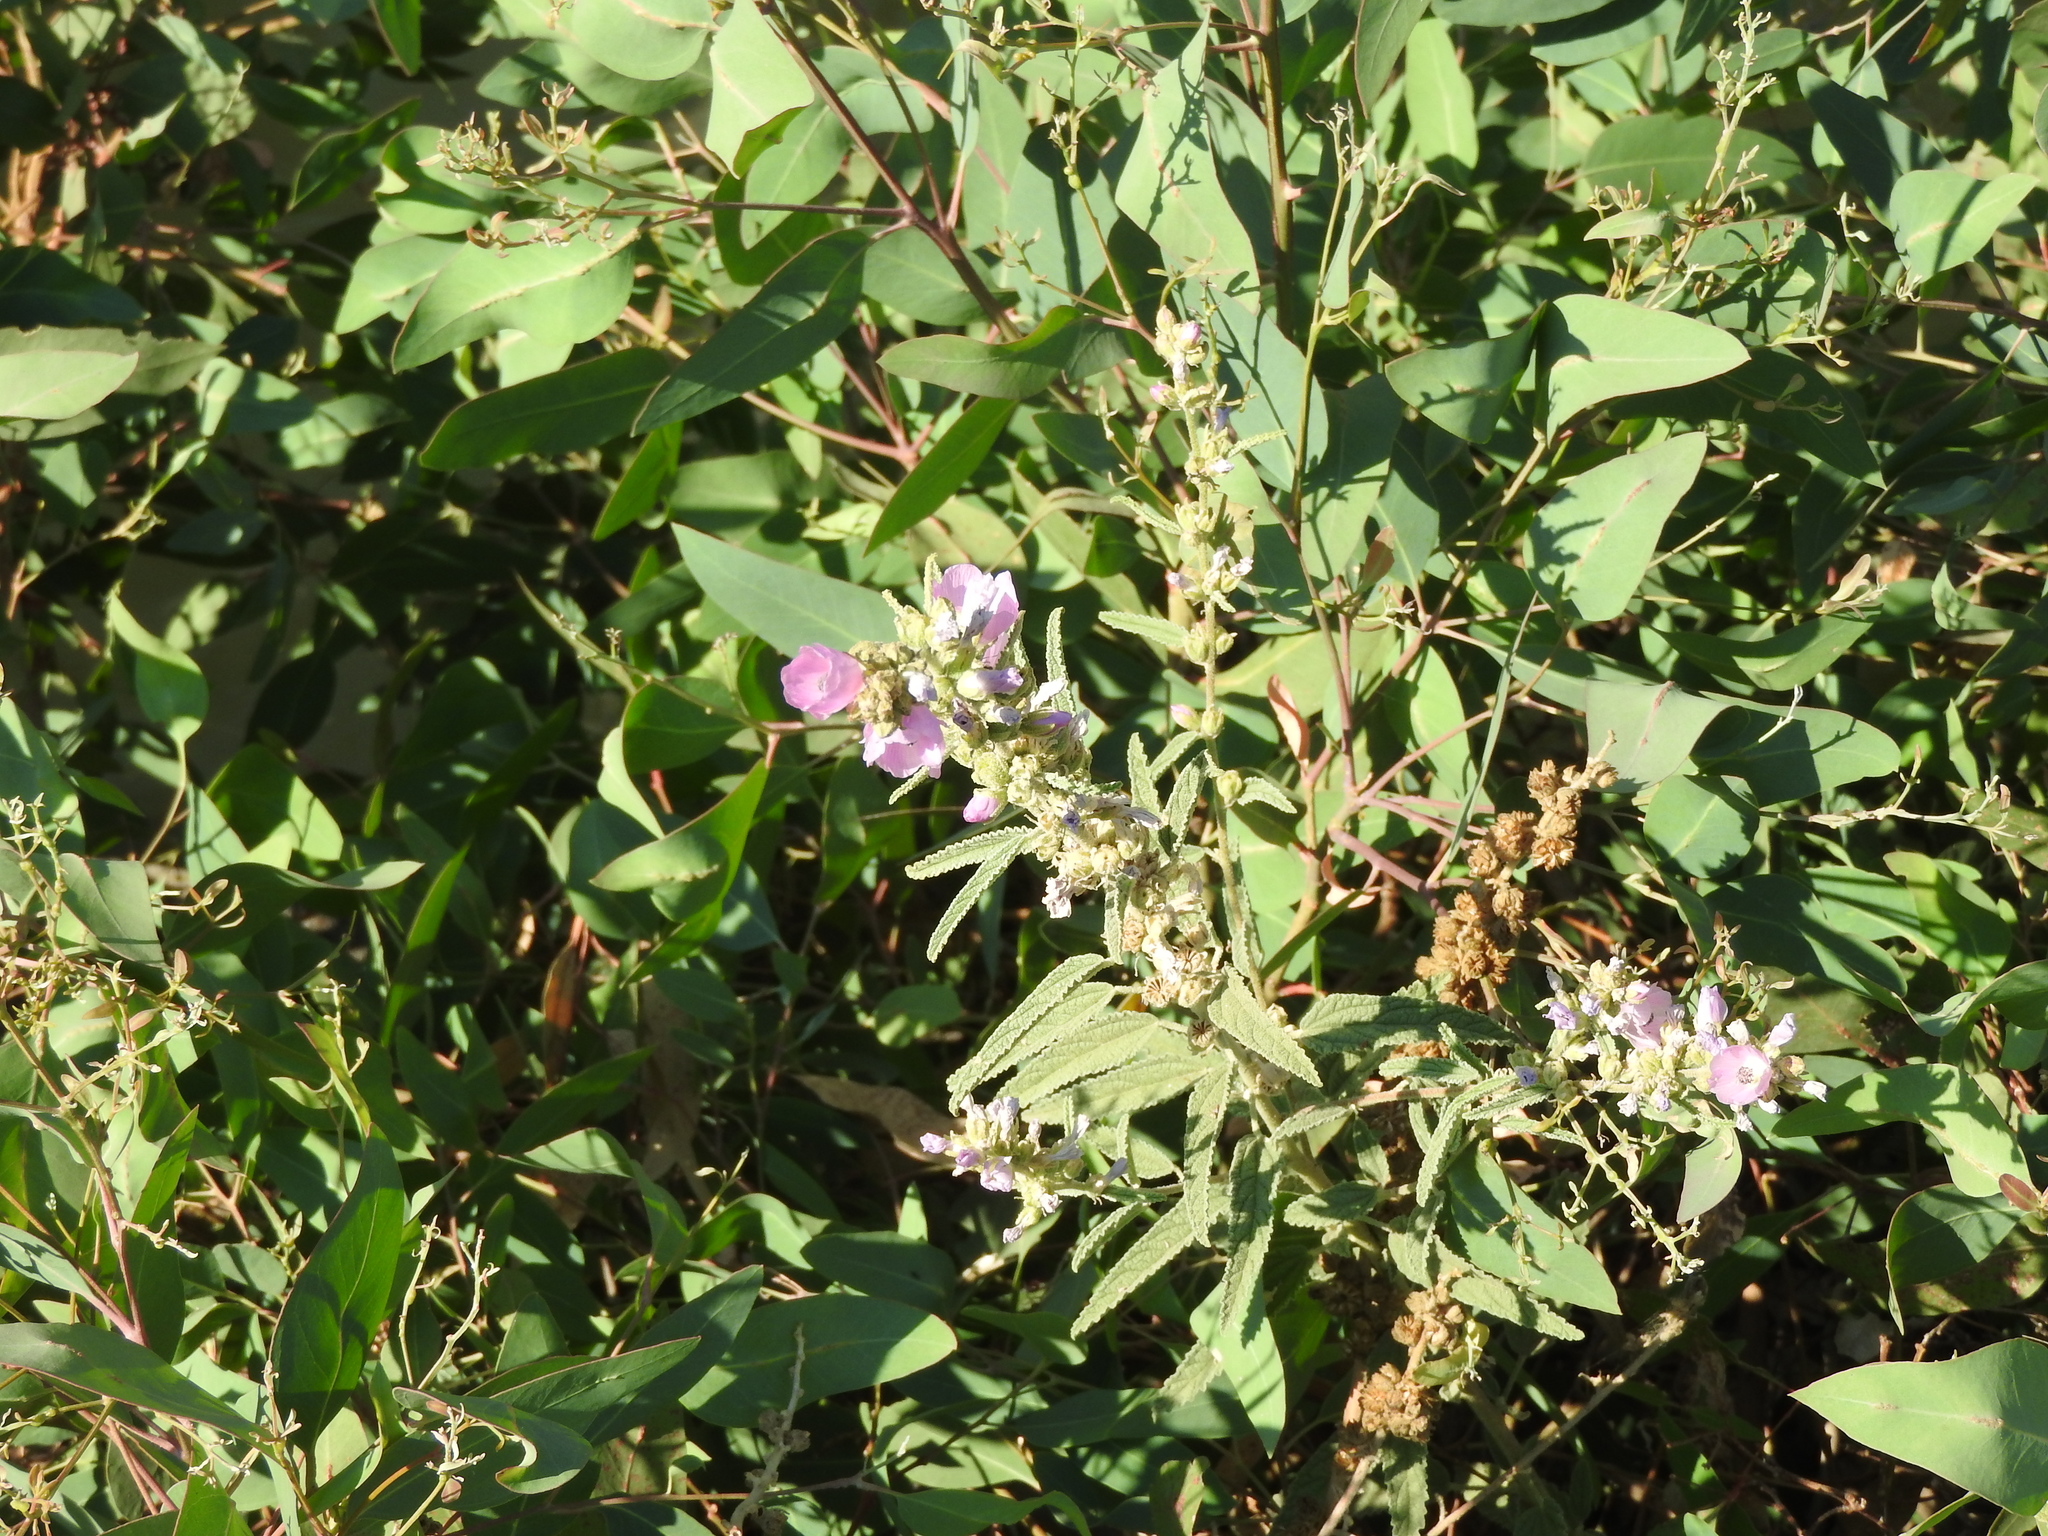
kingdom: Plantae
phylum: Tracheophyta
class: Magnoliopsida
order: Malvales
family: Malvaceae
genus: Sphaeralcea
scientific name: Sphaeralcea angustifolia
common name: Copper globe-mallow
